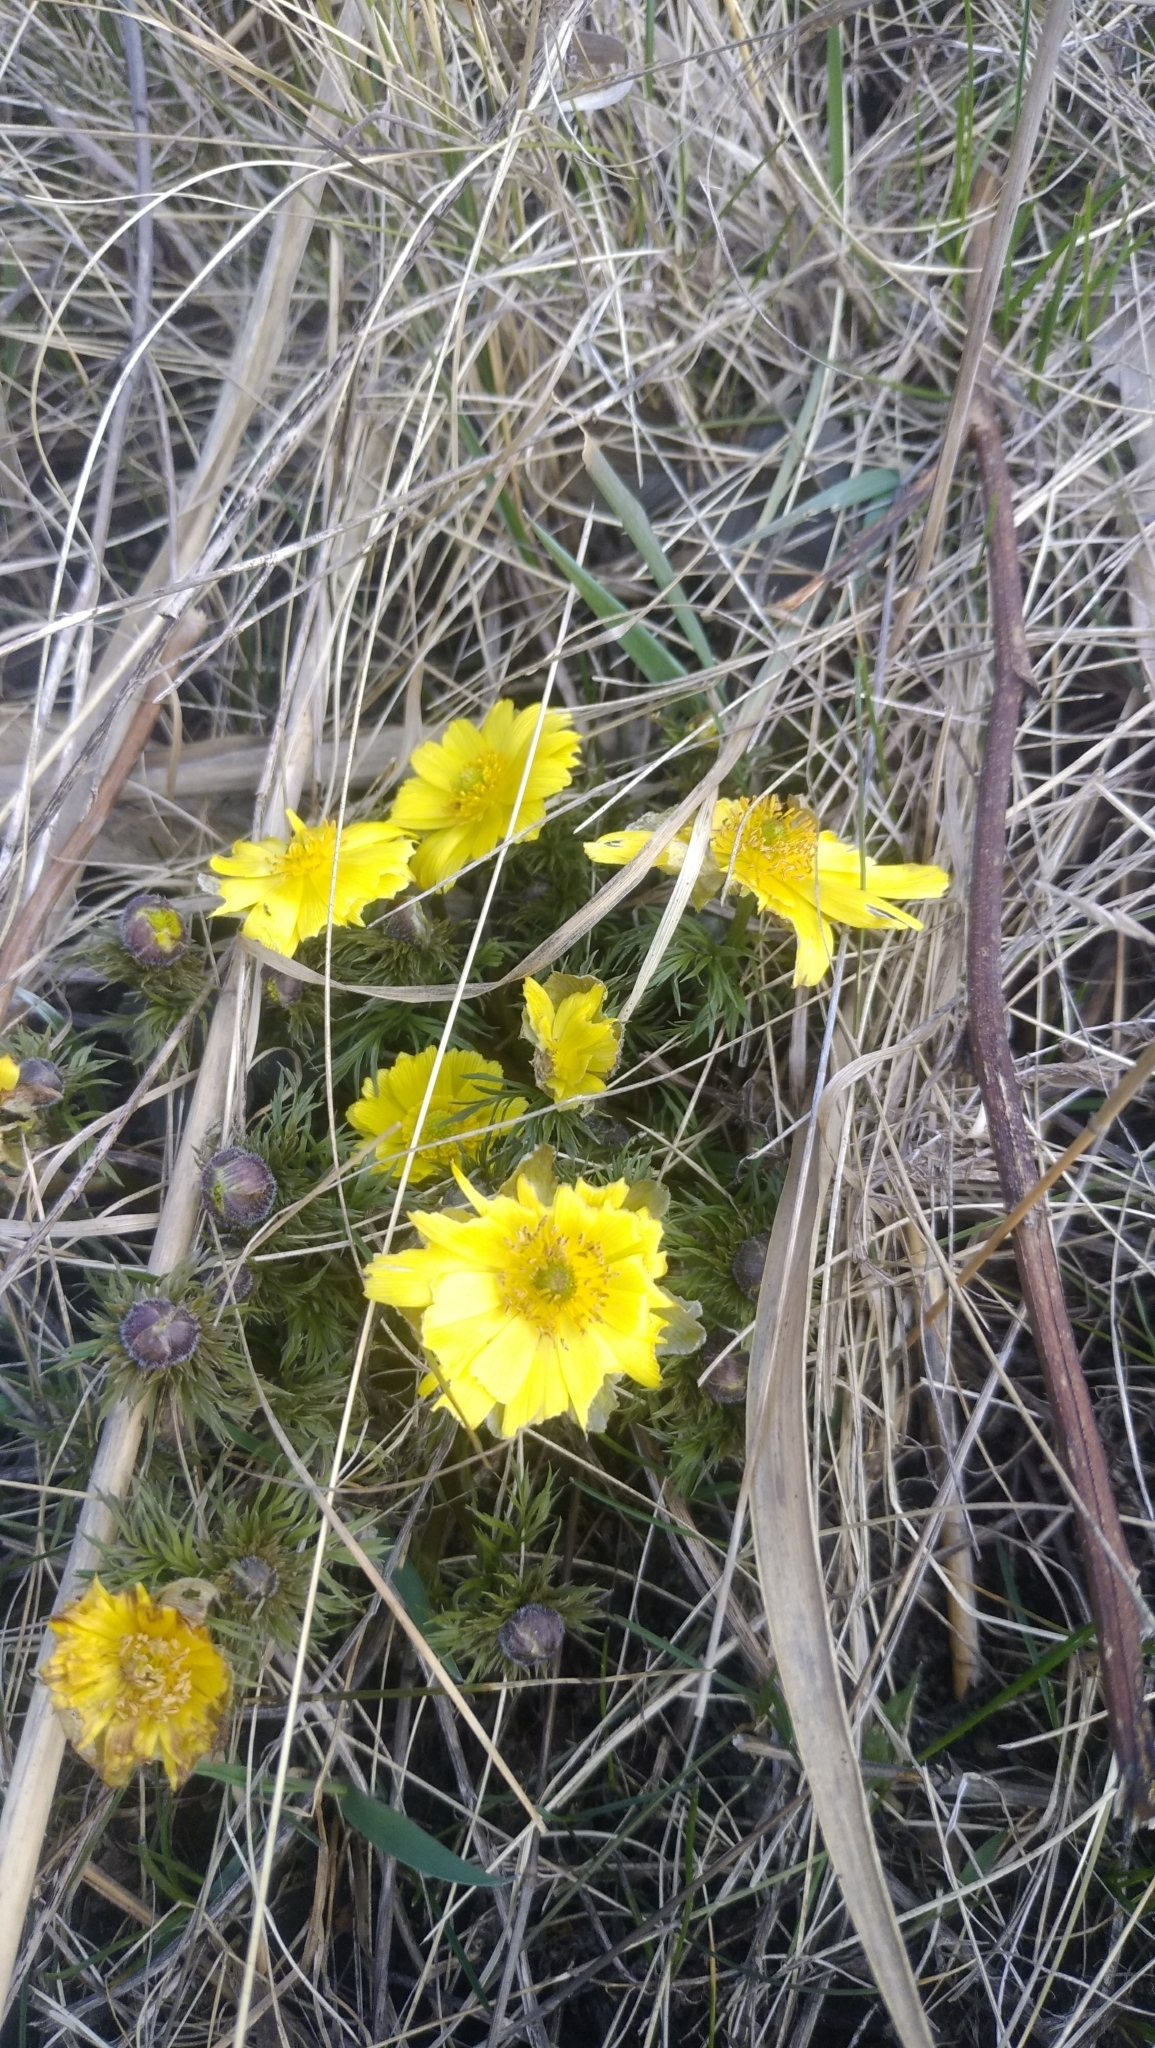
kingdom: Plantae
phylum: Tracheophyta
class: Magnoliopsida
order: Ranunculales
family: Ranunculaceae
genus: Adonis
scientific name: Adonis vernalis
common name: Yellow pheasants-eye
